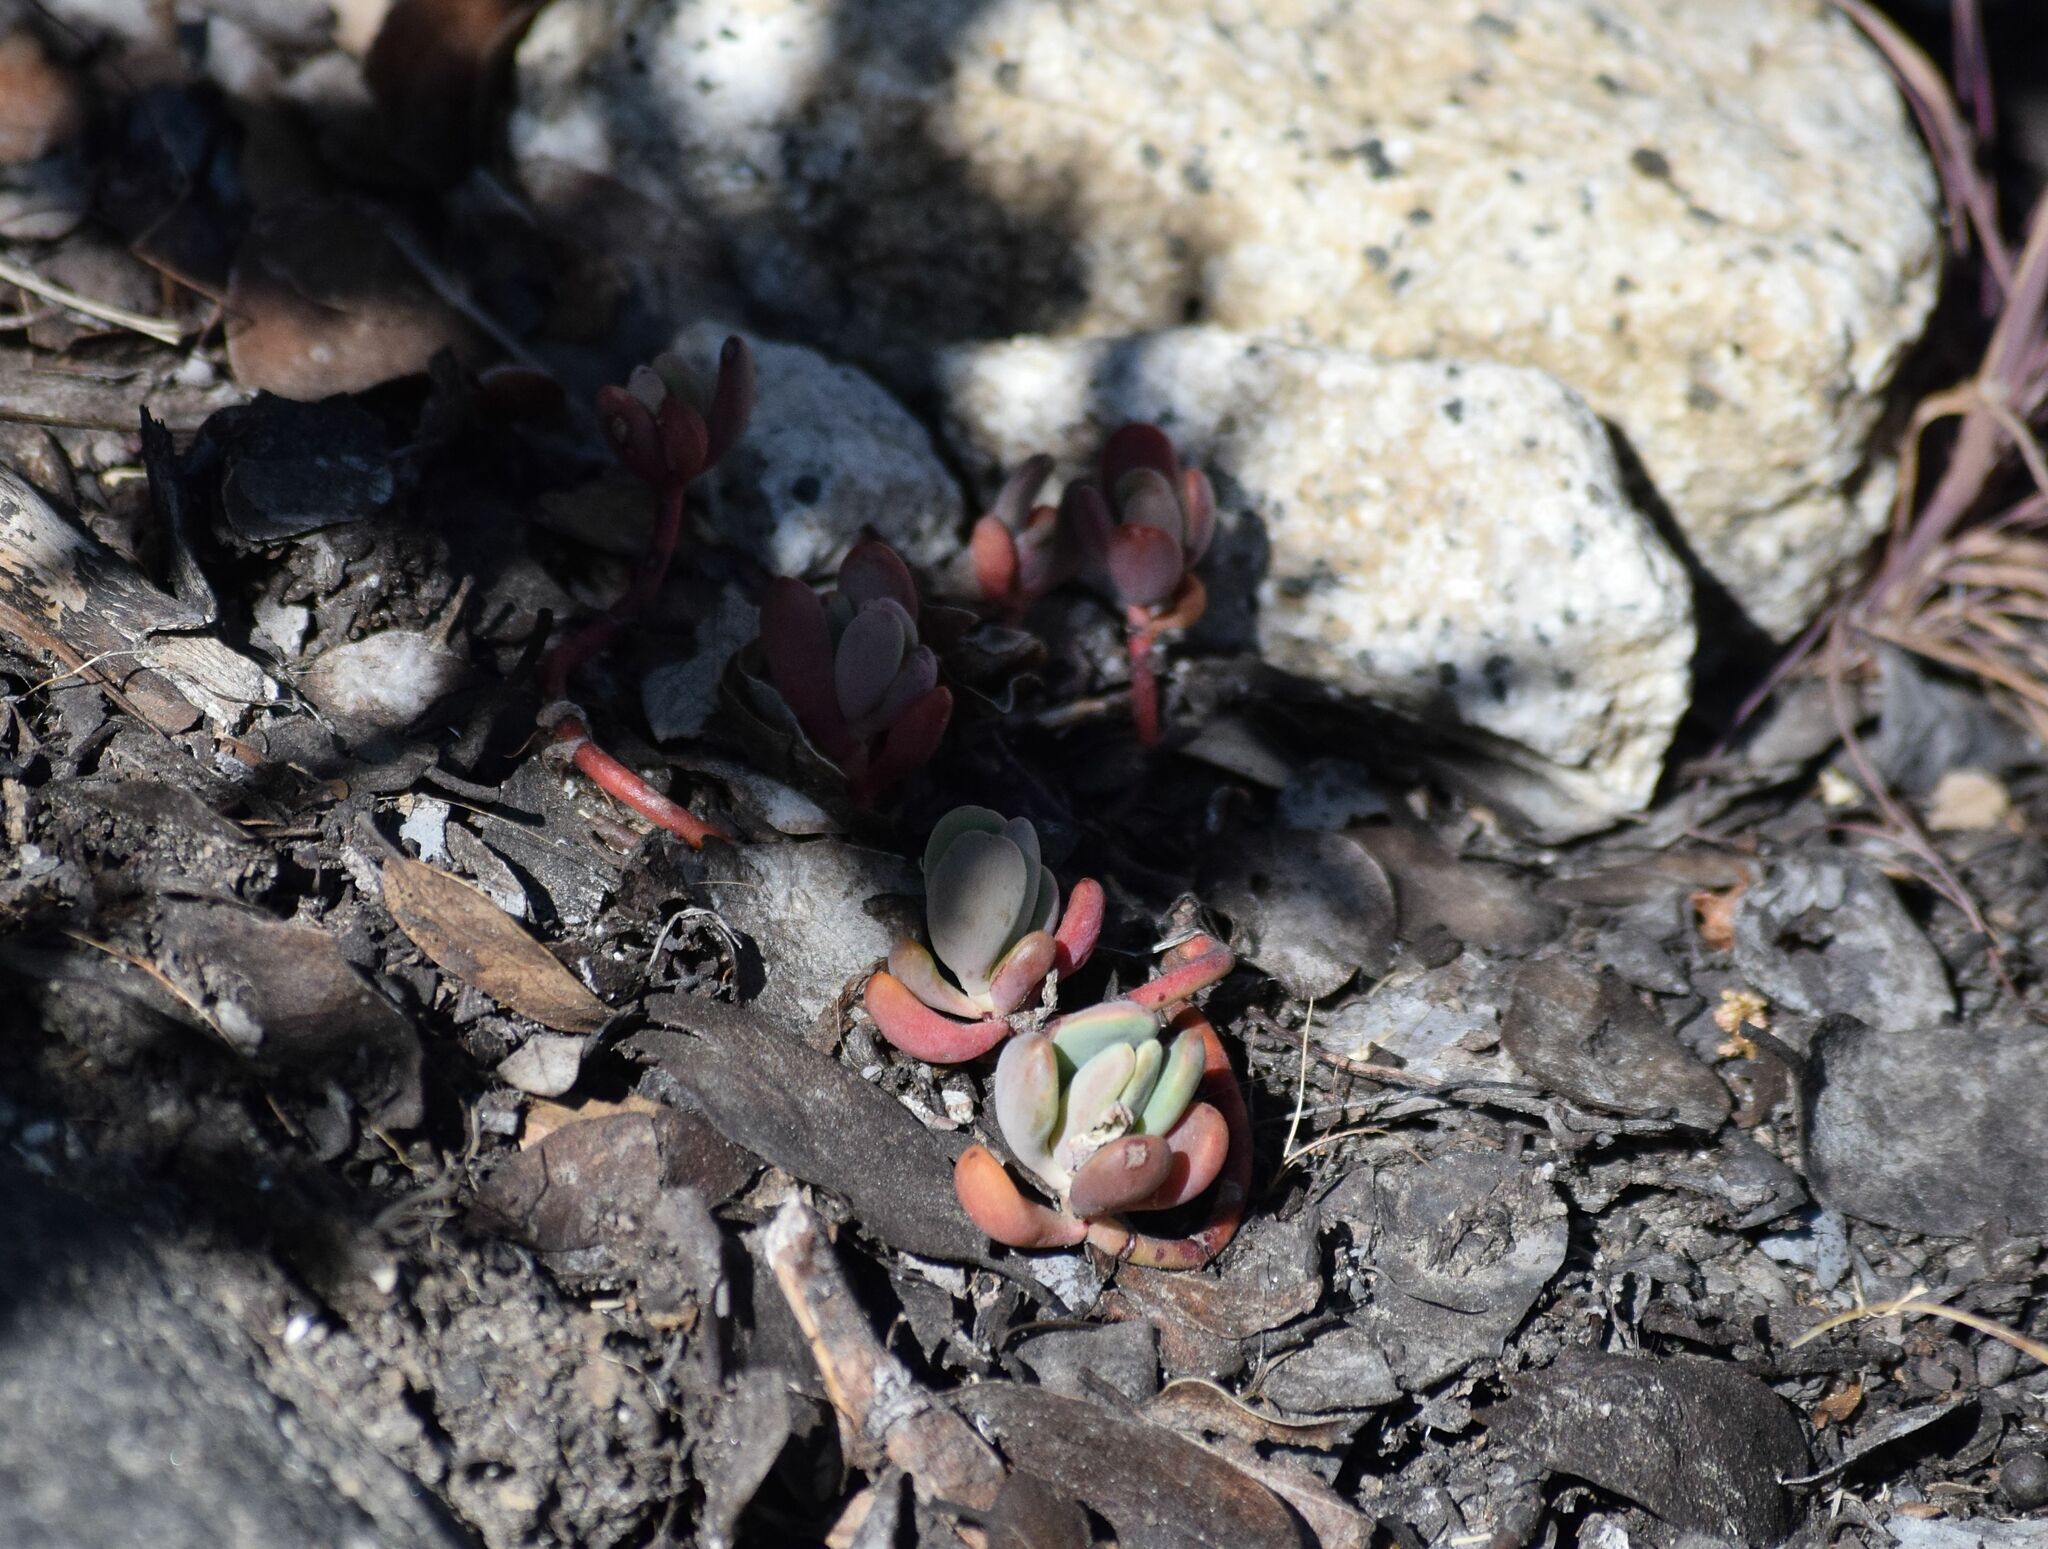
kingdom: Plantae
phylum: Tracheophyta
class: Magnoliopsida
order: Saxifragales
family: Crassulaceae
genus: Sedum
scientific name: Sedum obtusatum
